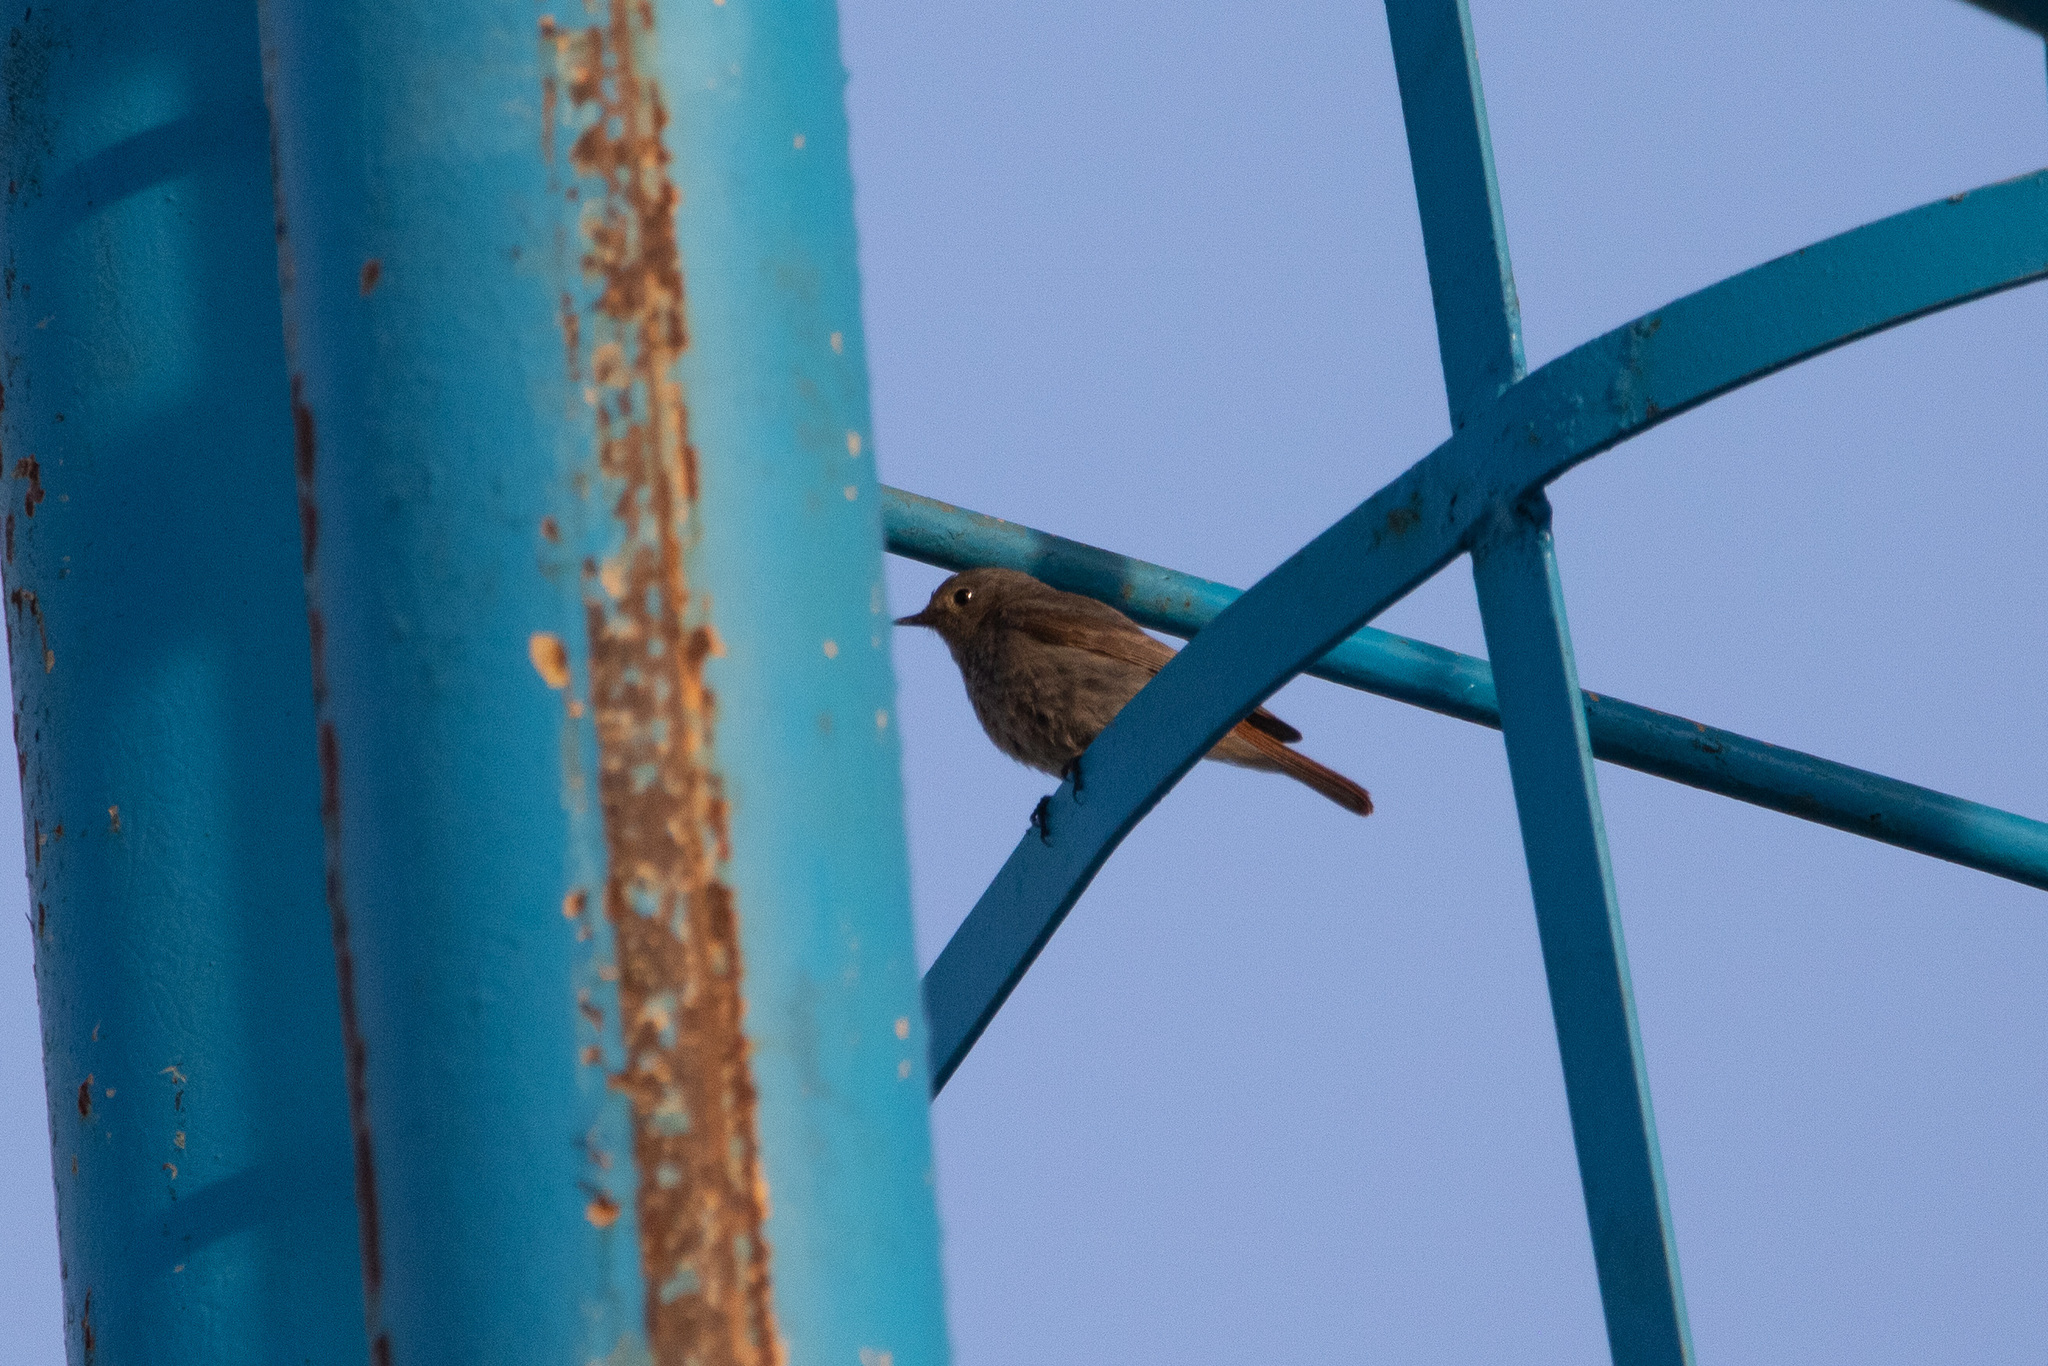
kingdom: Animalia
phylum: Chordata
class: Aves
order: Passeriformes
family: Muscicapidae
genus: Phoenicurus
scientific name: Phoenicurus ochruros
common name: Black redstart
